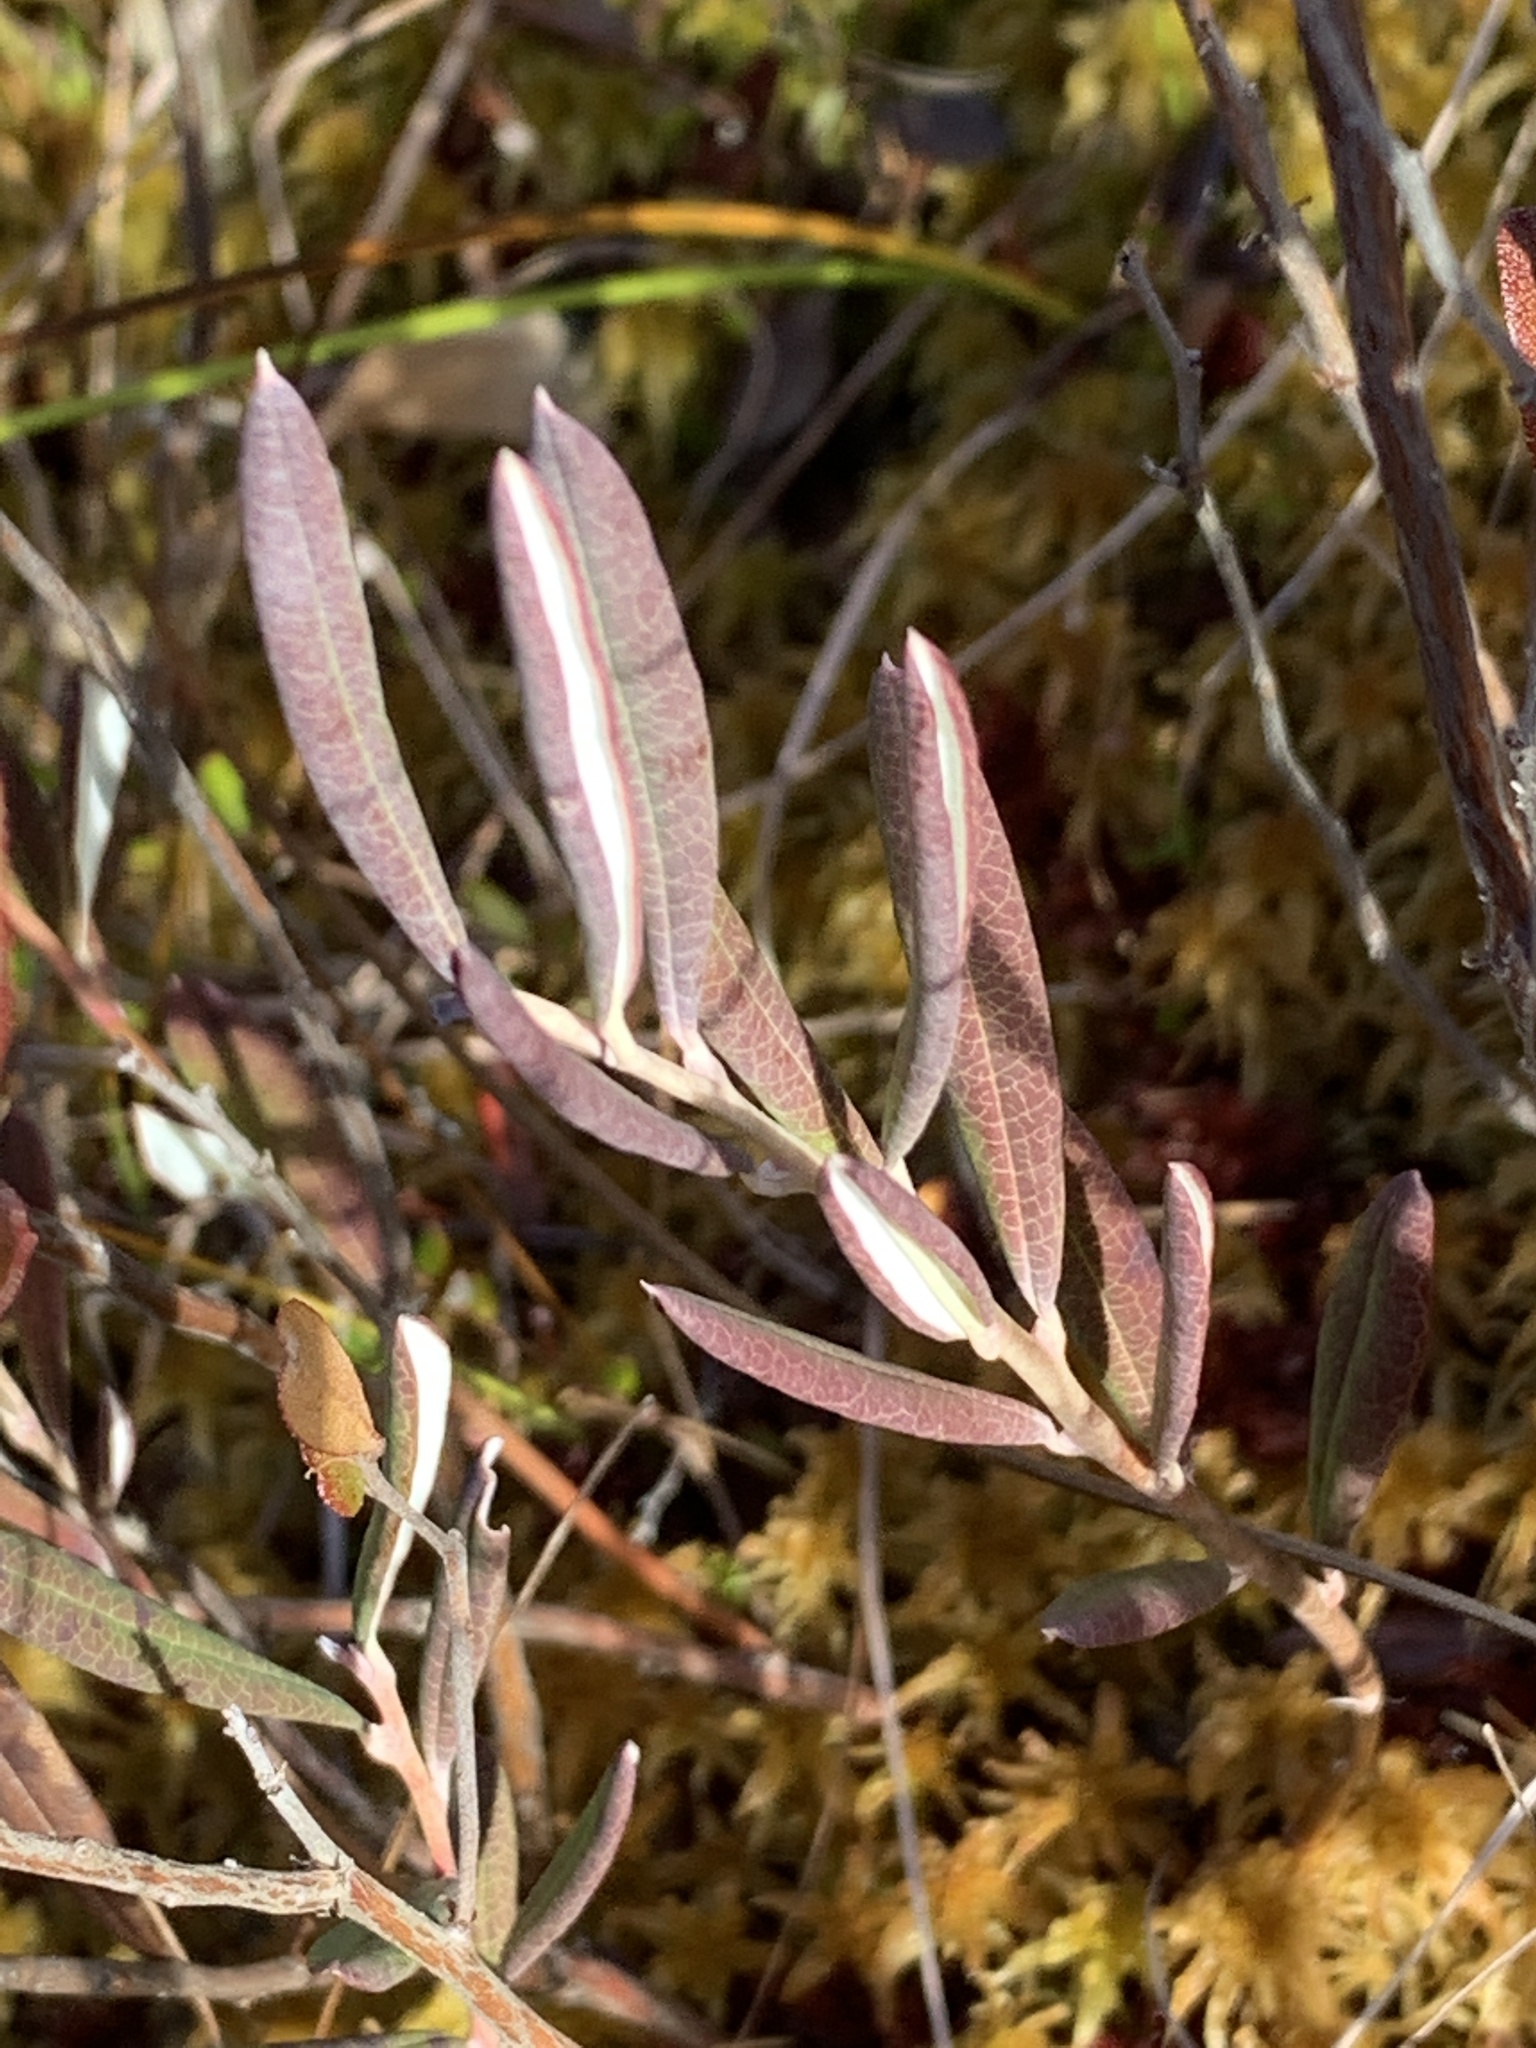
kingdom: Plantae
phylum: Tracheophyta
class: Magnoliopsida
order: Ericales
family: Ericaceae
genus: Andromeda
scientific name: Andromeda polifolia
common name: Bog-rosemary
